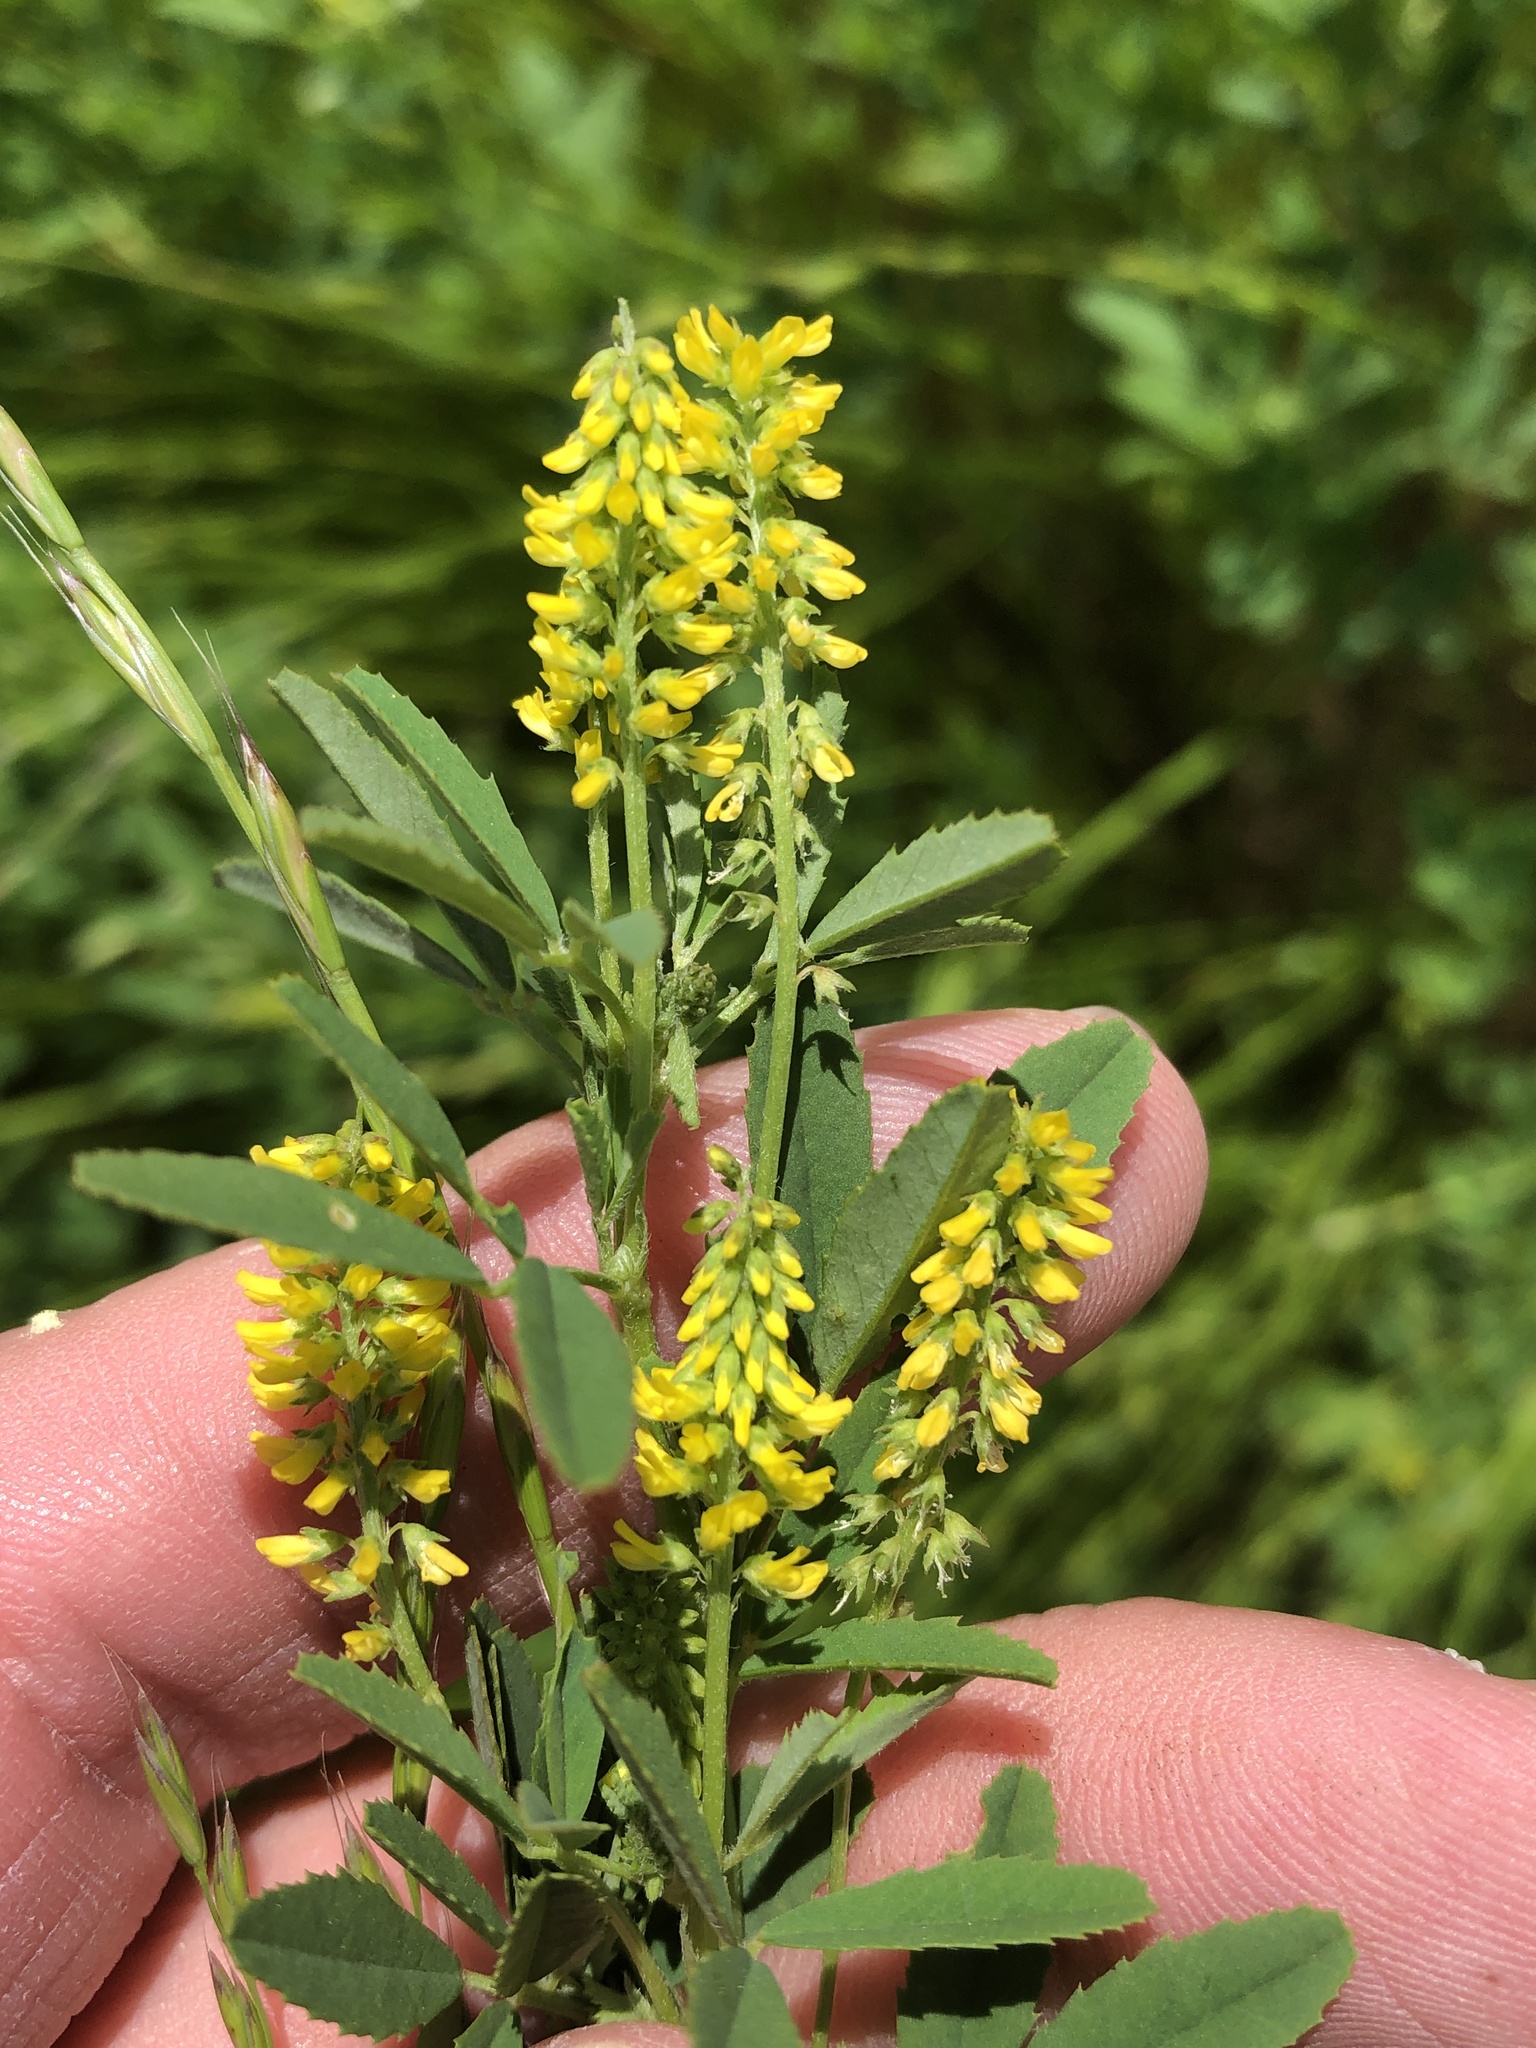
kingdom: Plantae
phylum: Tracheophyta
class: Magnoliopsida
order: Fabales
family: Fabaceae
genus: Melilotus
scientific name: Melilotus indicus
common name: Small melilot
